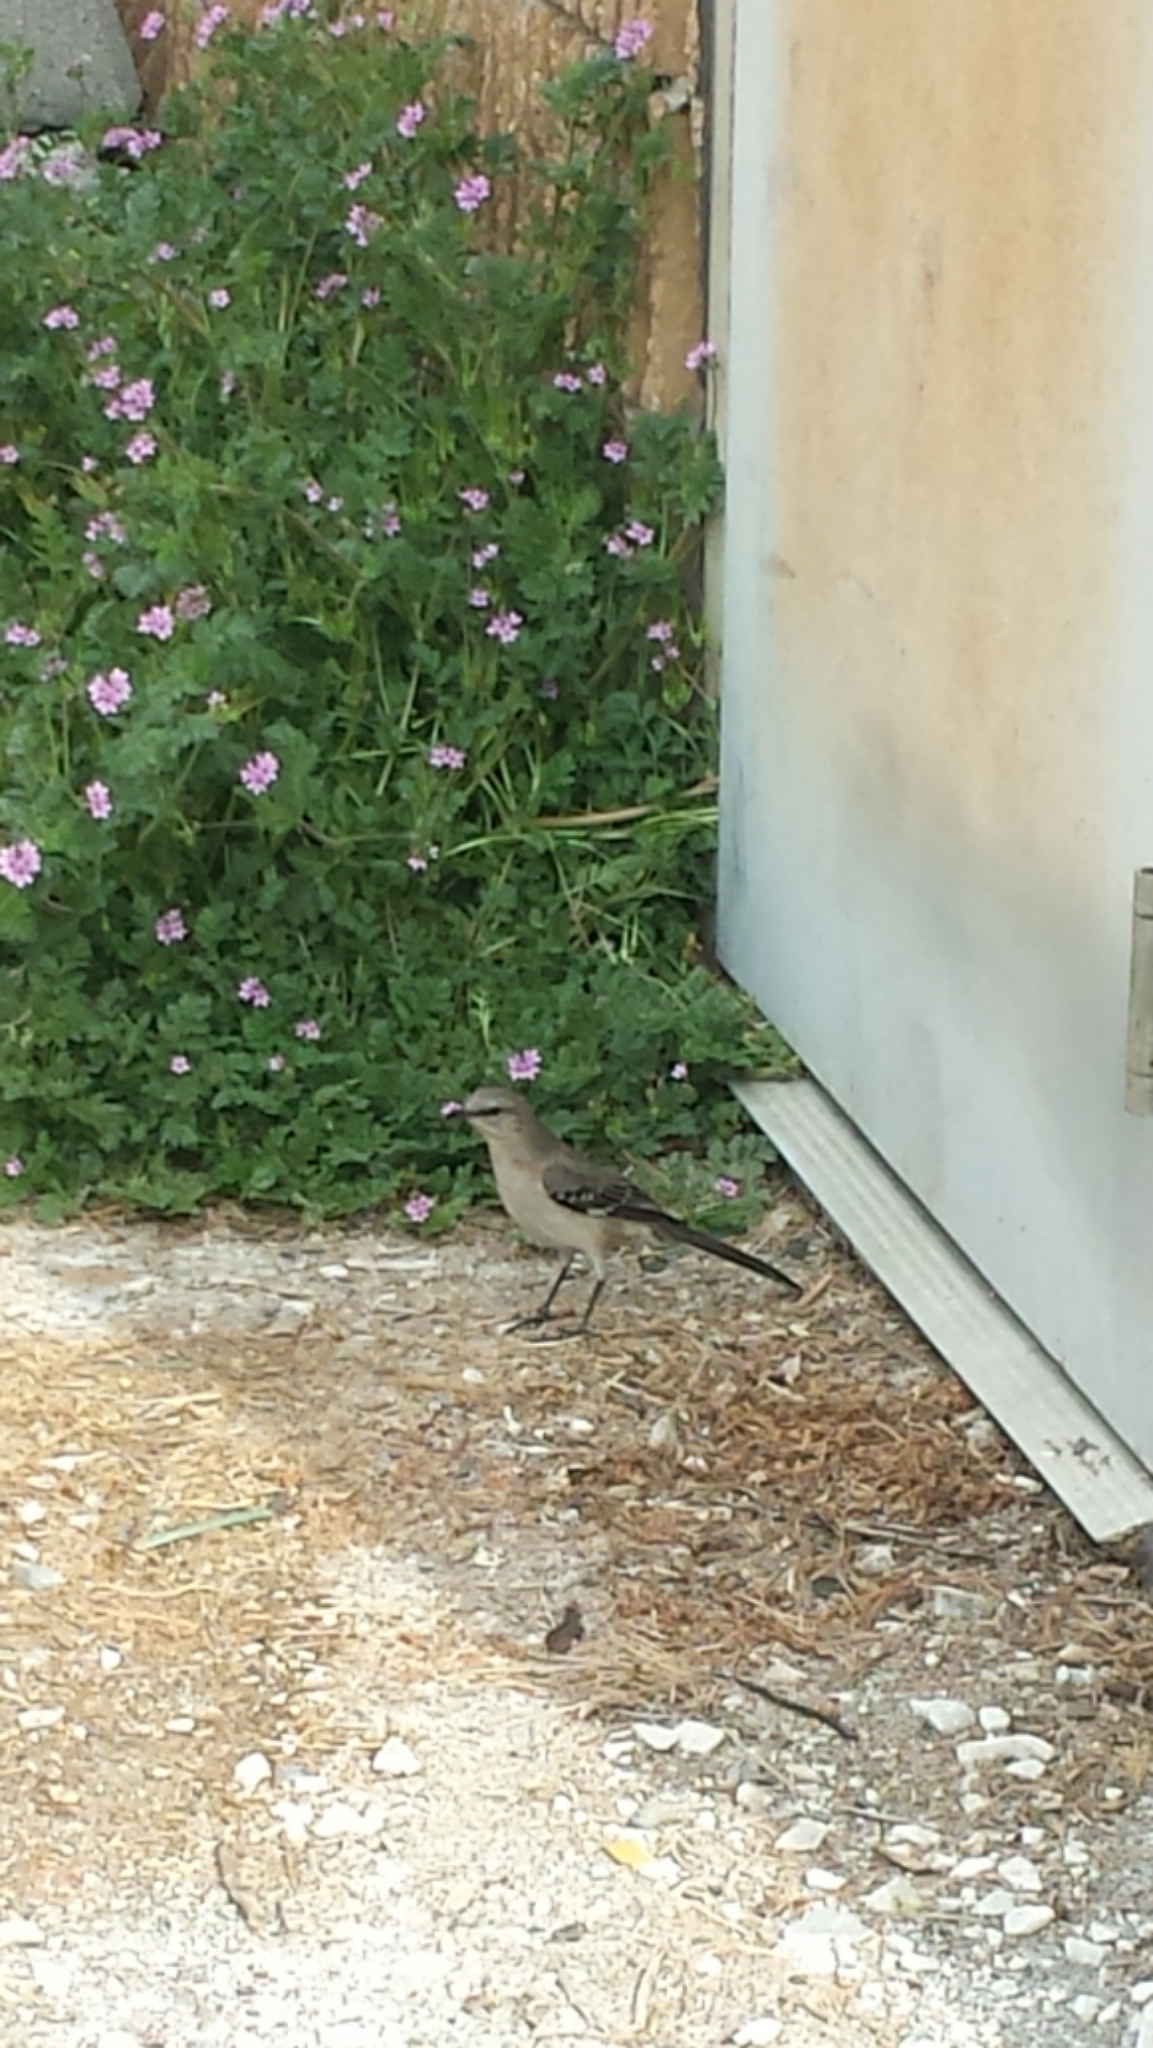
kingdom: Animalia
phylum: Chordata
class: Aves
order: Passeriformes
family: Mimidae
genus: Mimus
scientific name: Mimus polyglottos
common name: Northern mockingbird
